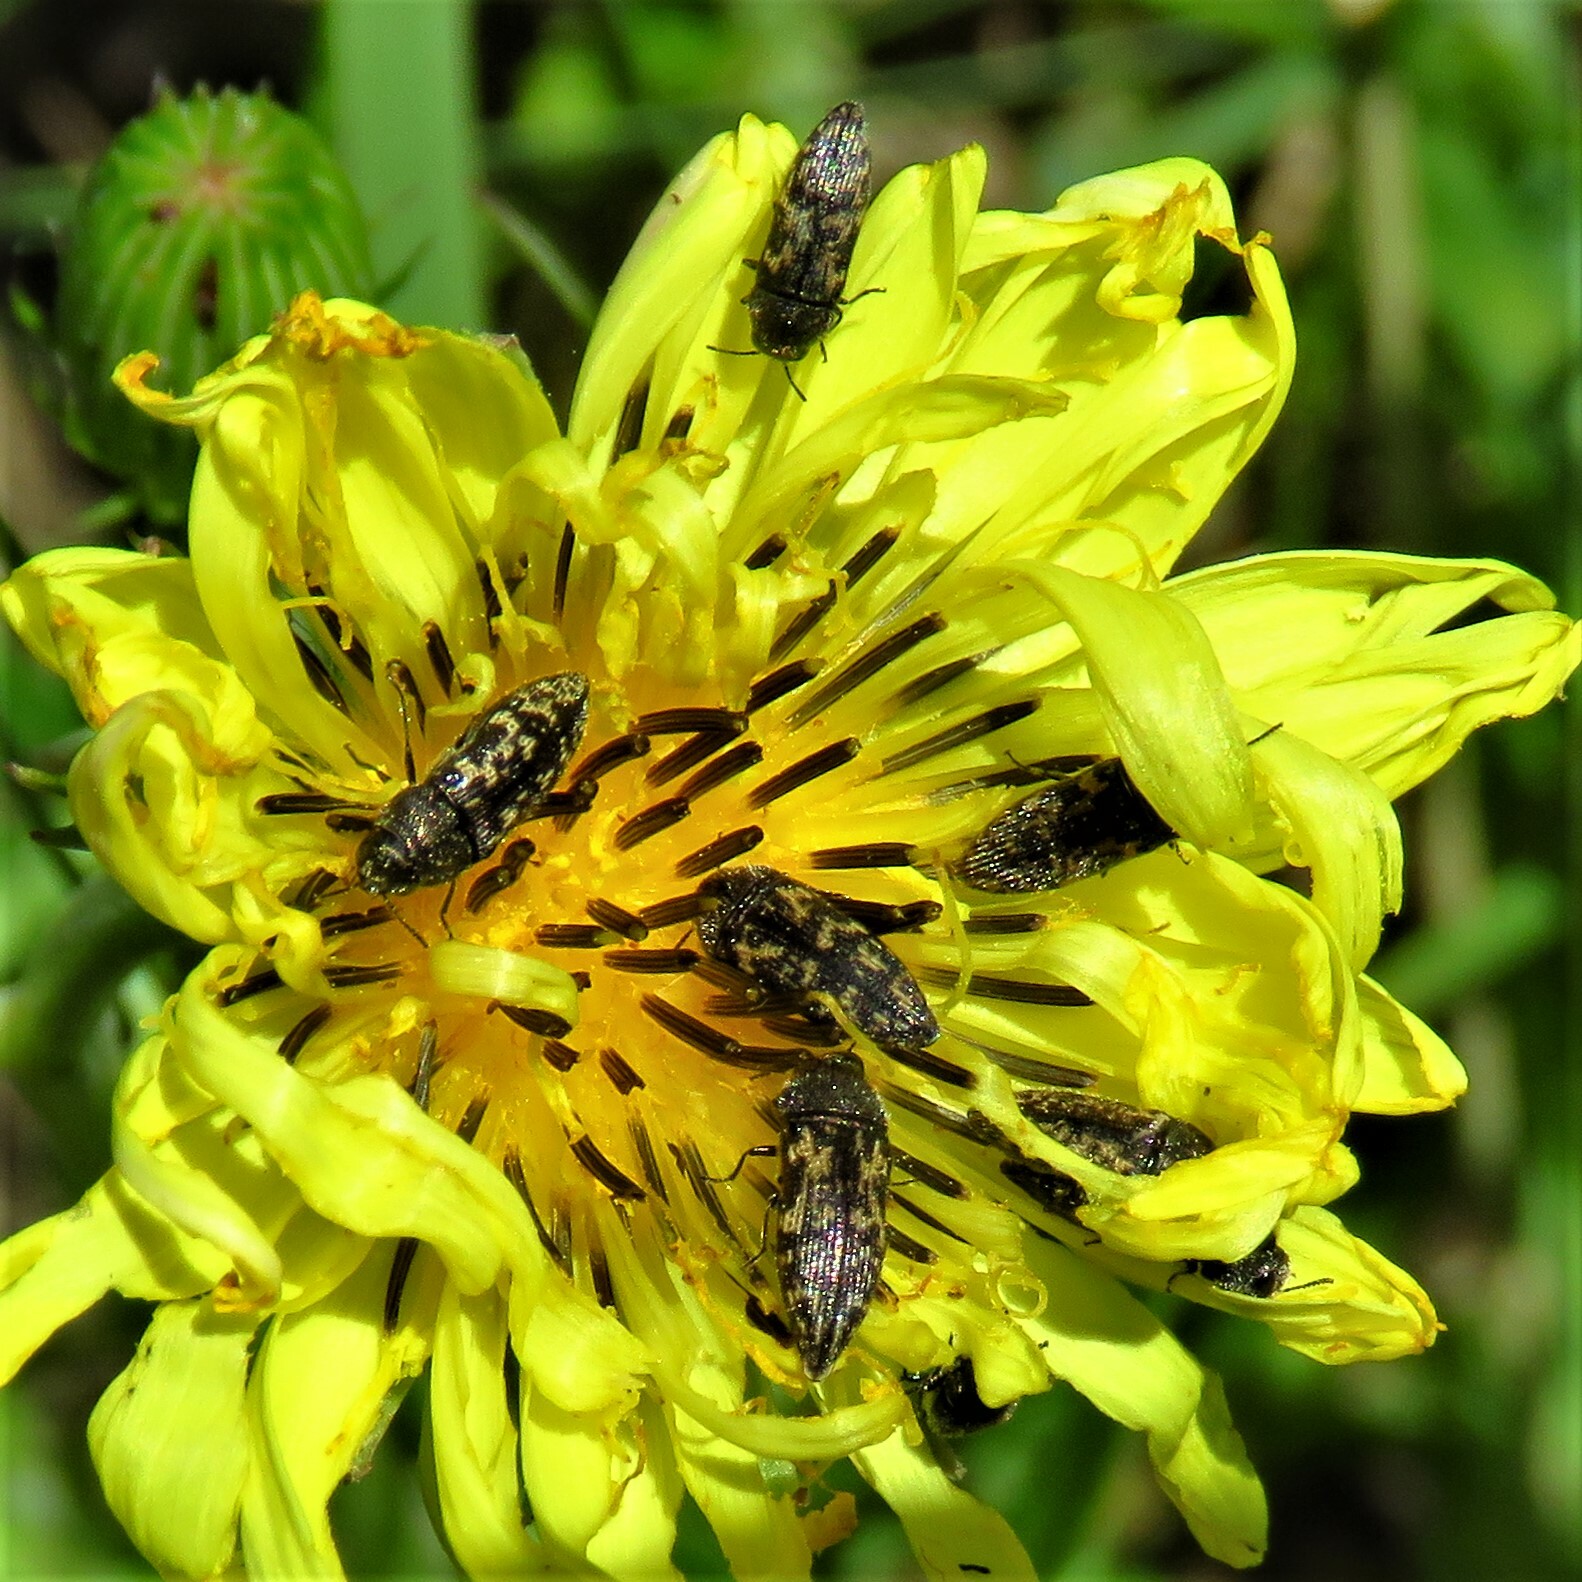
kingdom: Animalia
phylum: Arthropoda
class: Insecta
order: Coleoptera
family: Buprestidae
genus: Acmaeodera
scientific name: Acmaeodera neglecta
